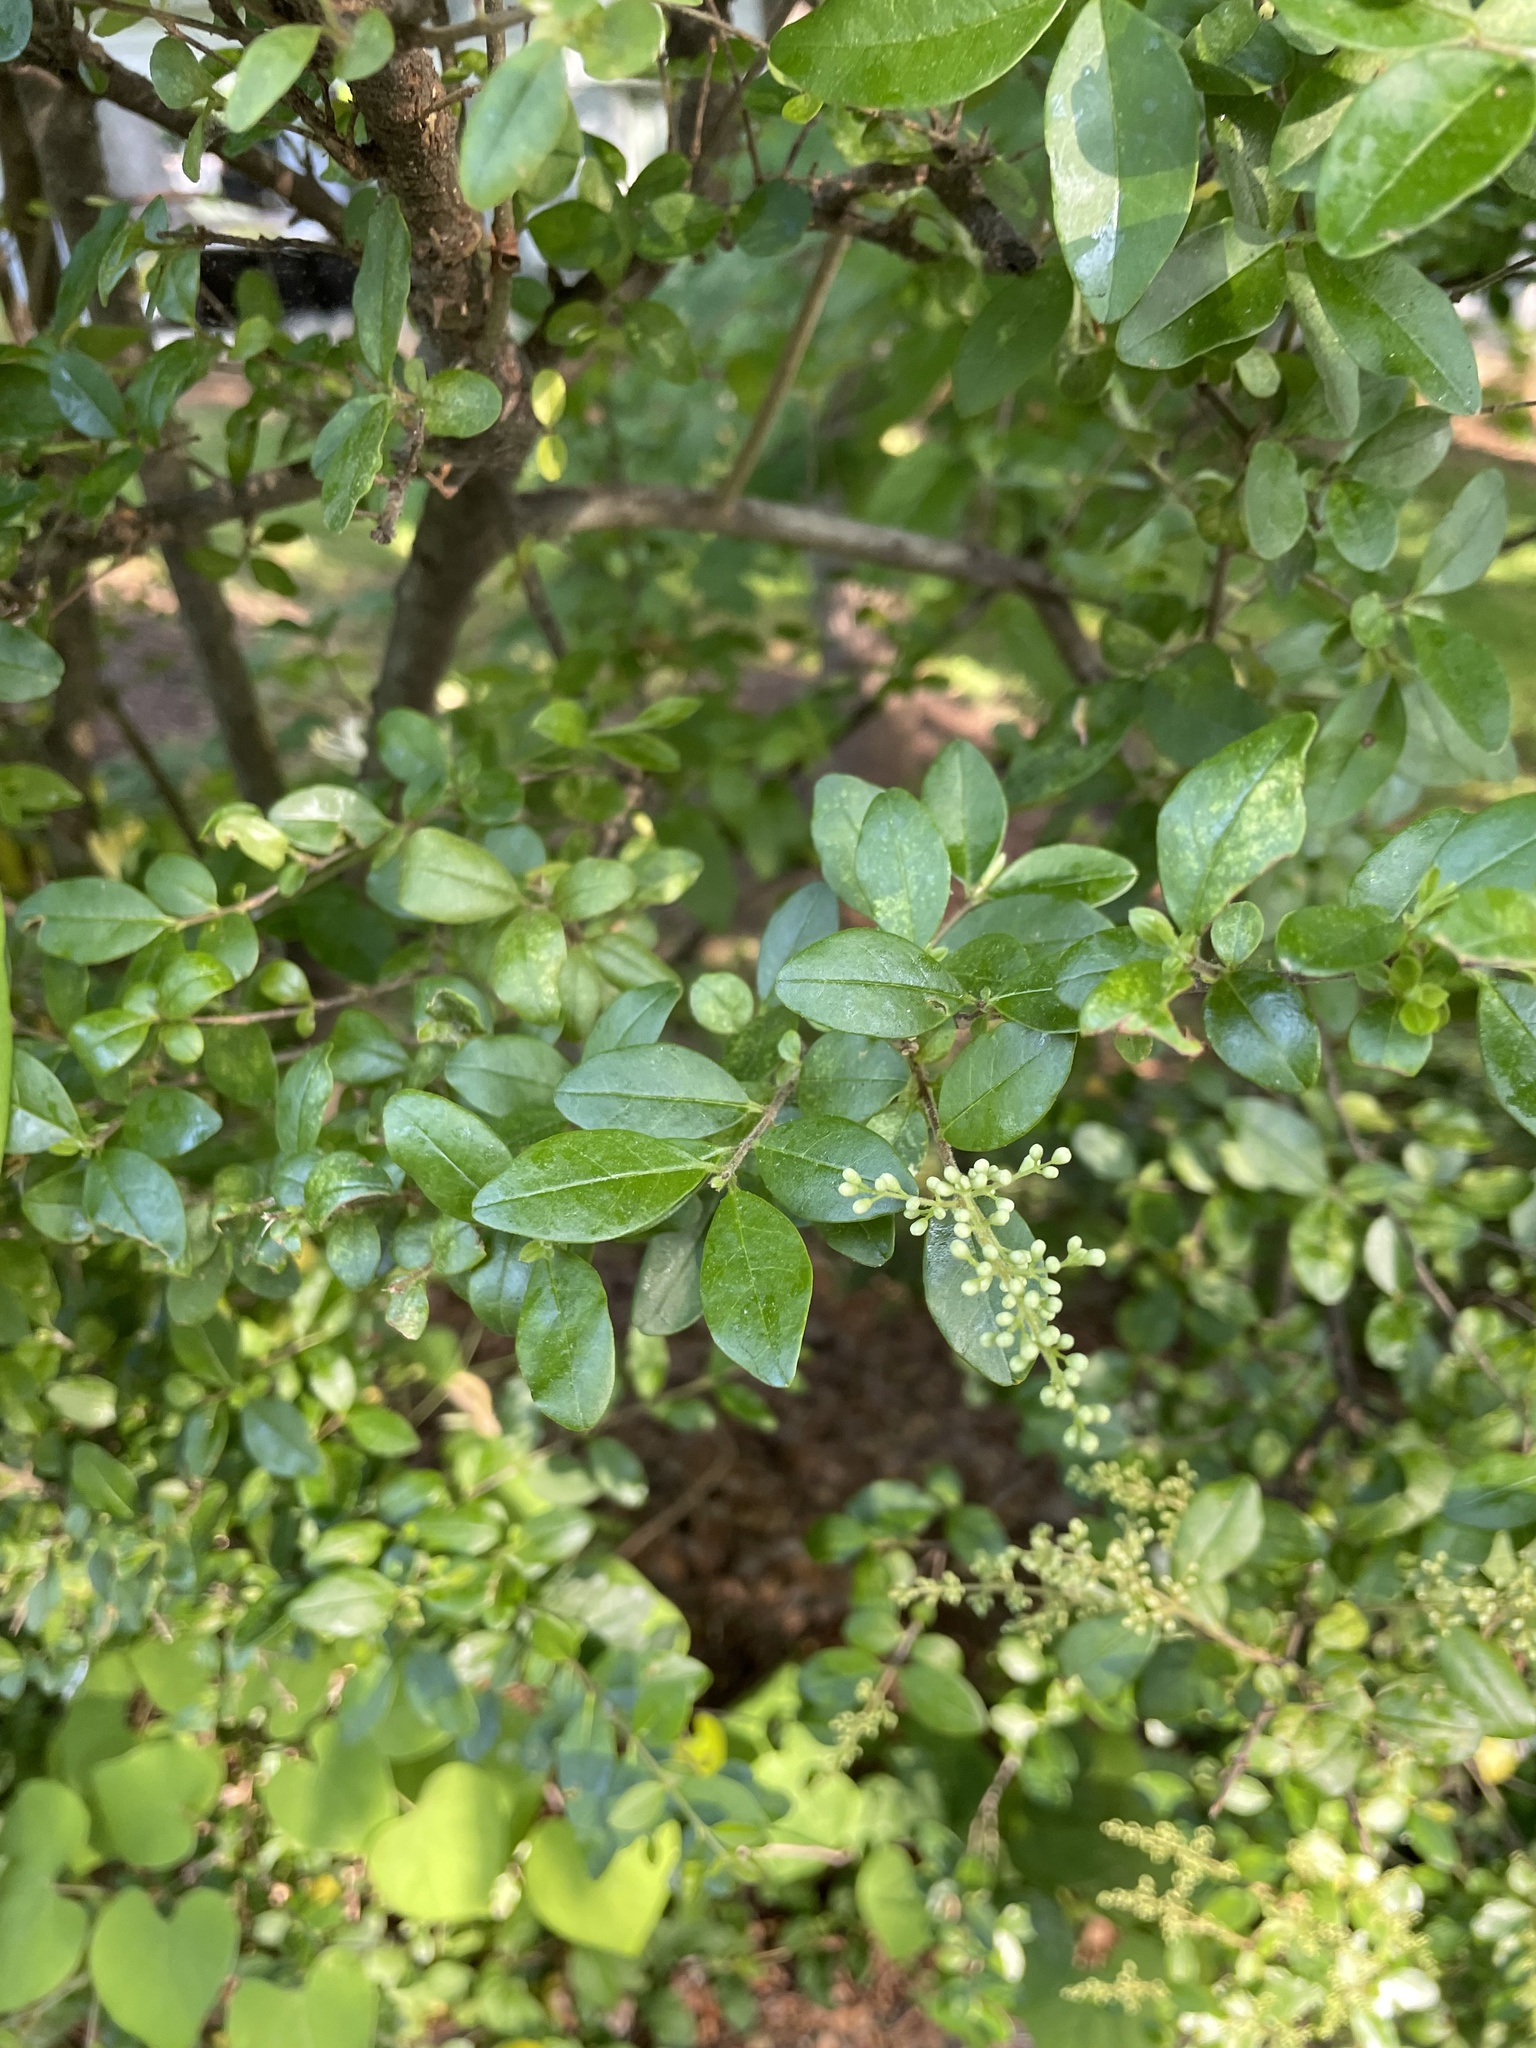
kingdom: Plantae
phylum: Tracheophyta
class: Magnoliopsida
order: Lamiales
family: Oleaceae
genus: Ligustrum
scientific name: Ligustrum sinense
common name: Chinese privet
